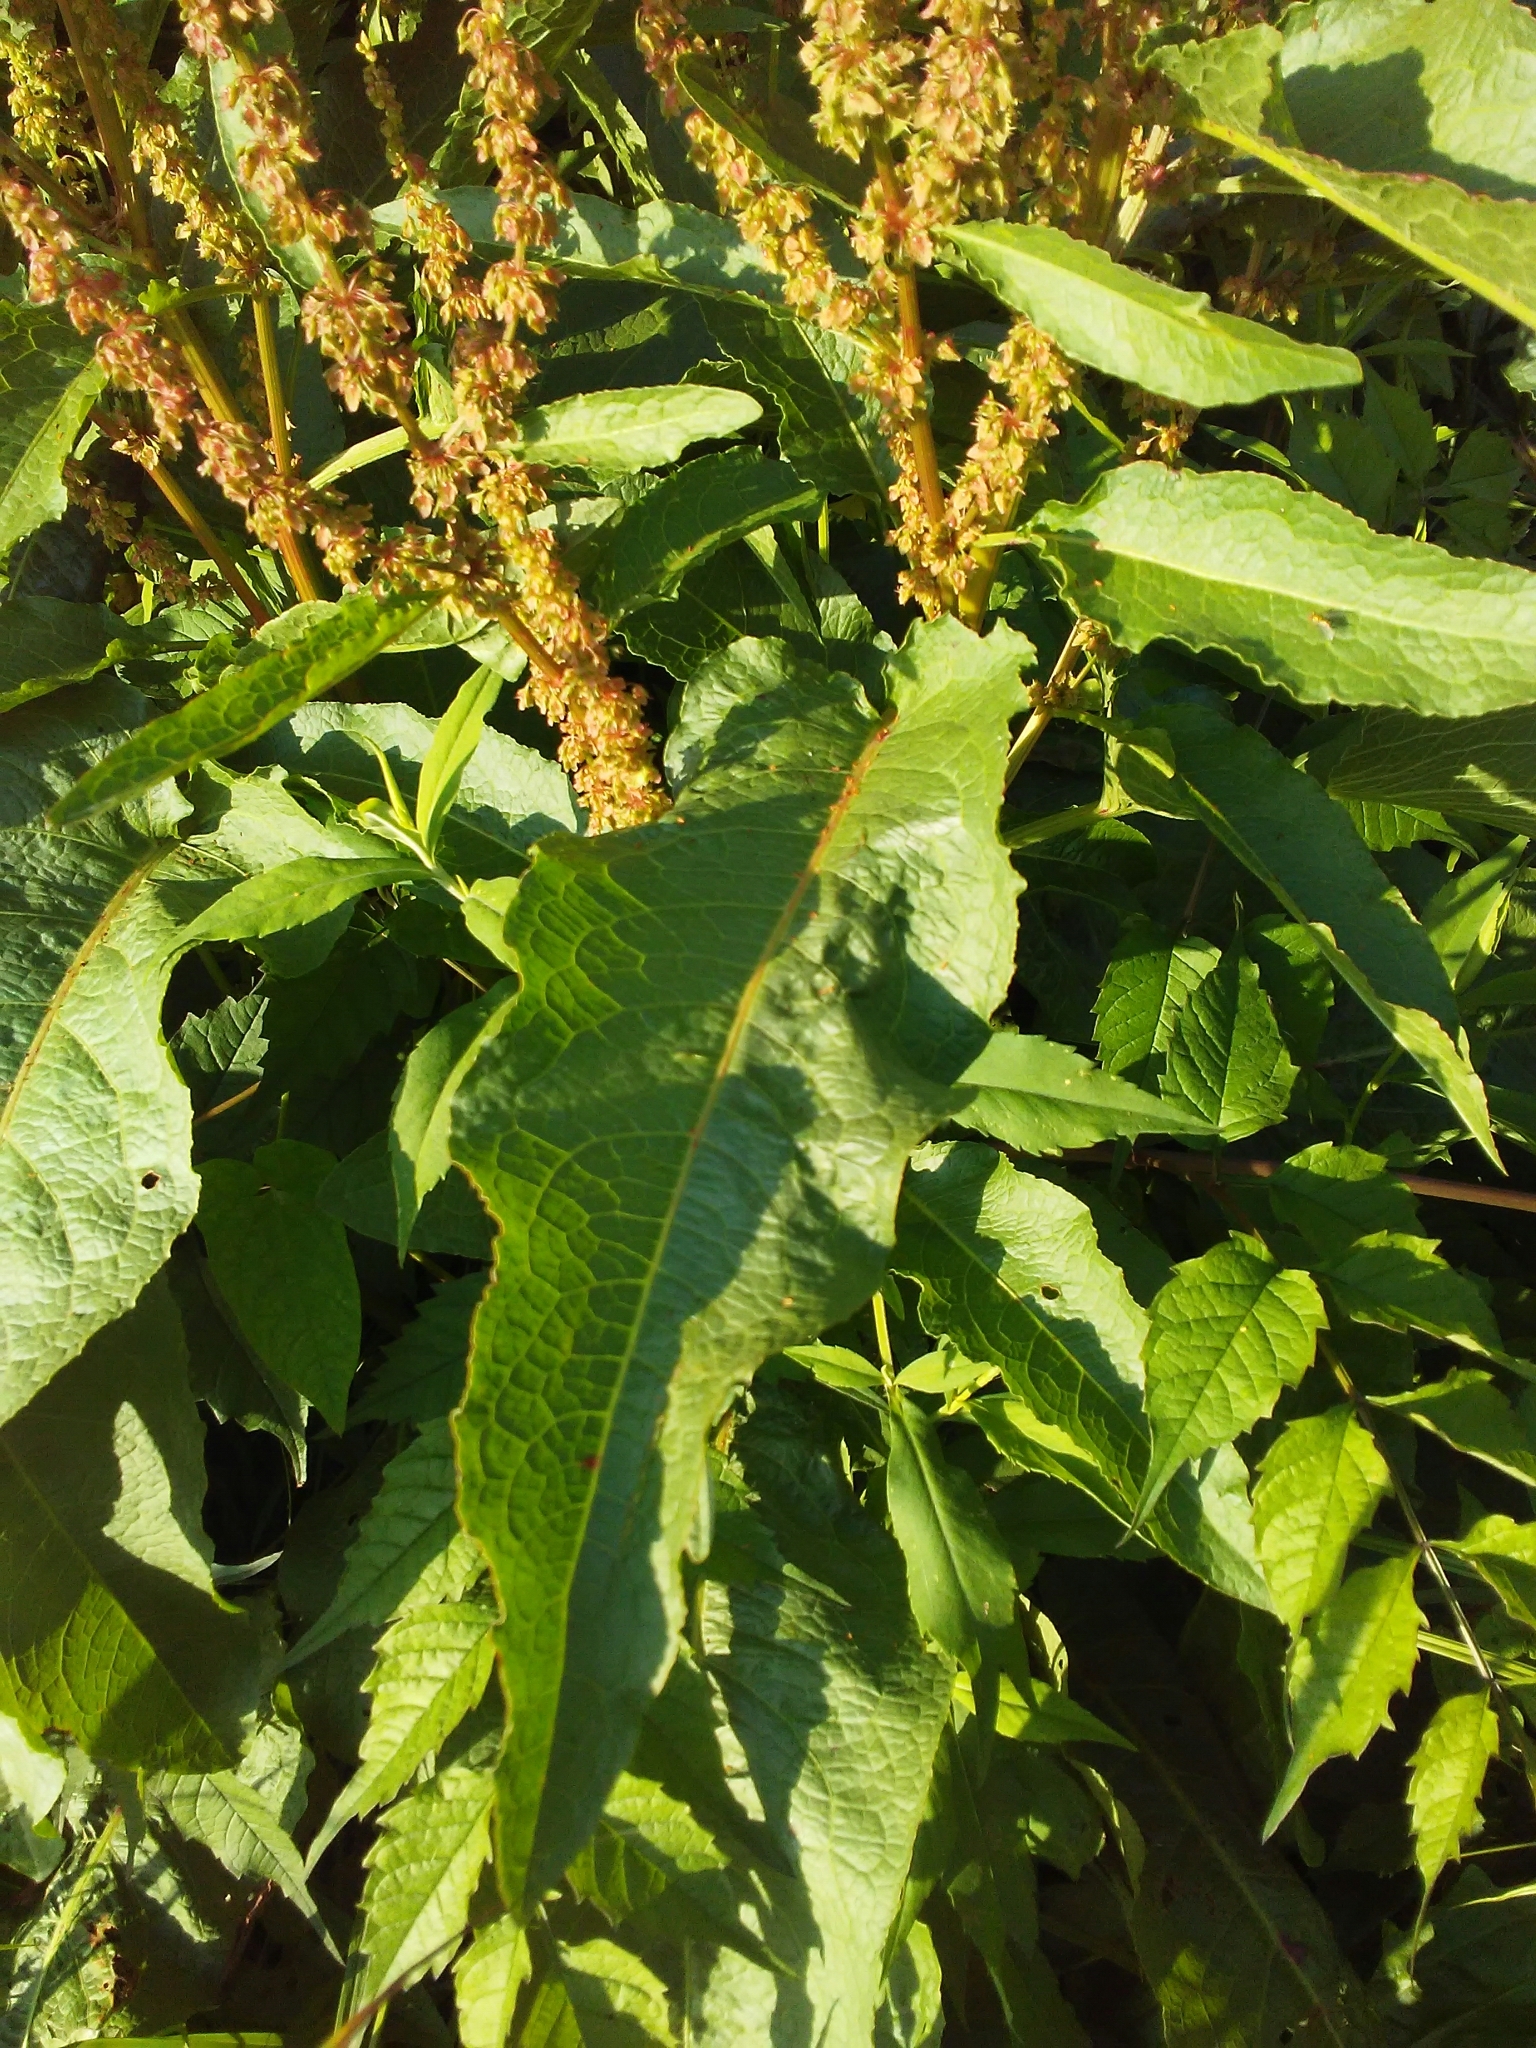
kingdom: Plantae
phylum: Tracheophyta
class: Magnoliopsida
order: Caryophyllales
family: Polygonaceae
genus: Rumex
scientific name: Rumex crispus
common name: Curled dock
